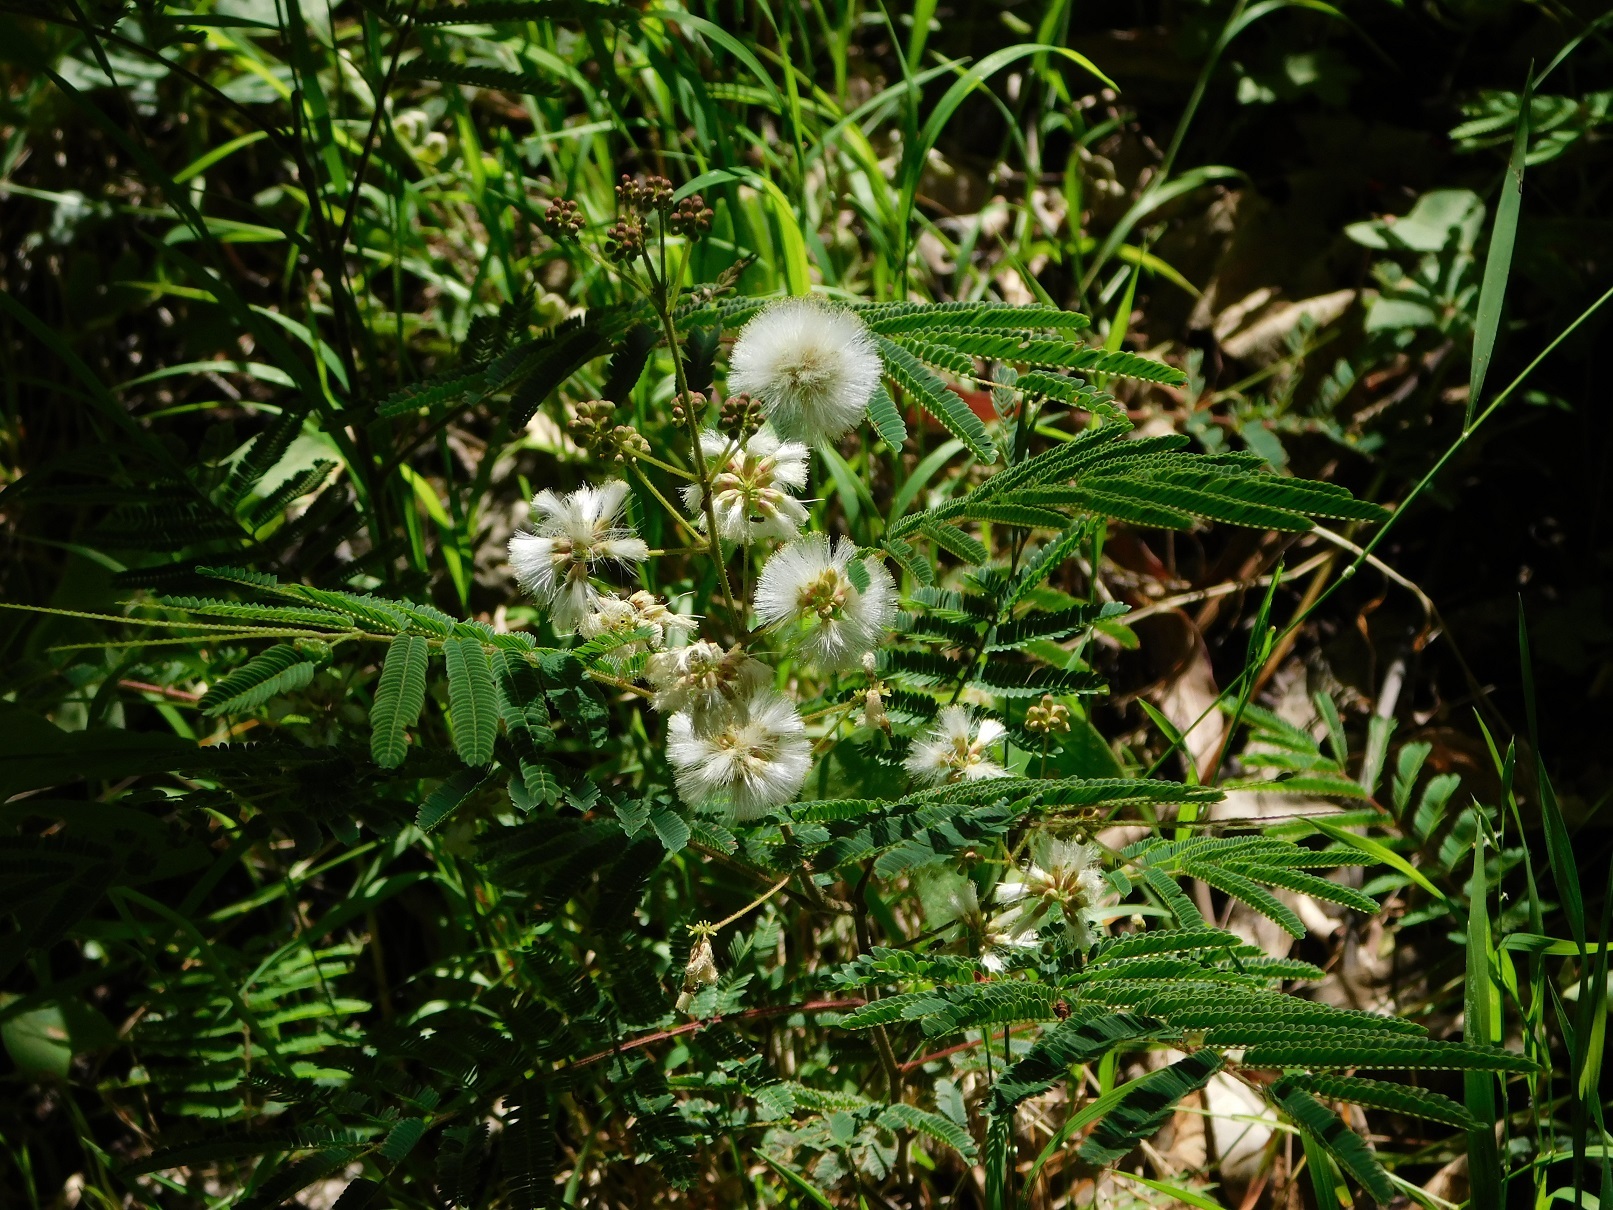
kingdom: Plantae
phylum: Tracheophyta
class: Magnoliopsida
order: Fabales
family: Fabaceae
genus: Acaciella
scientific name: Acaciella angustissima
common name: Prairie acacia
